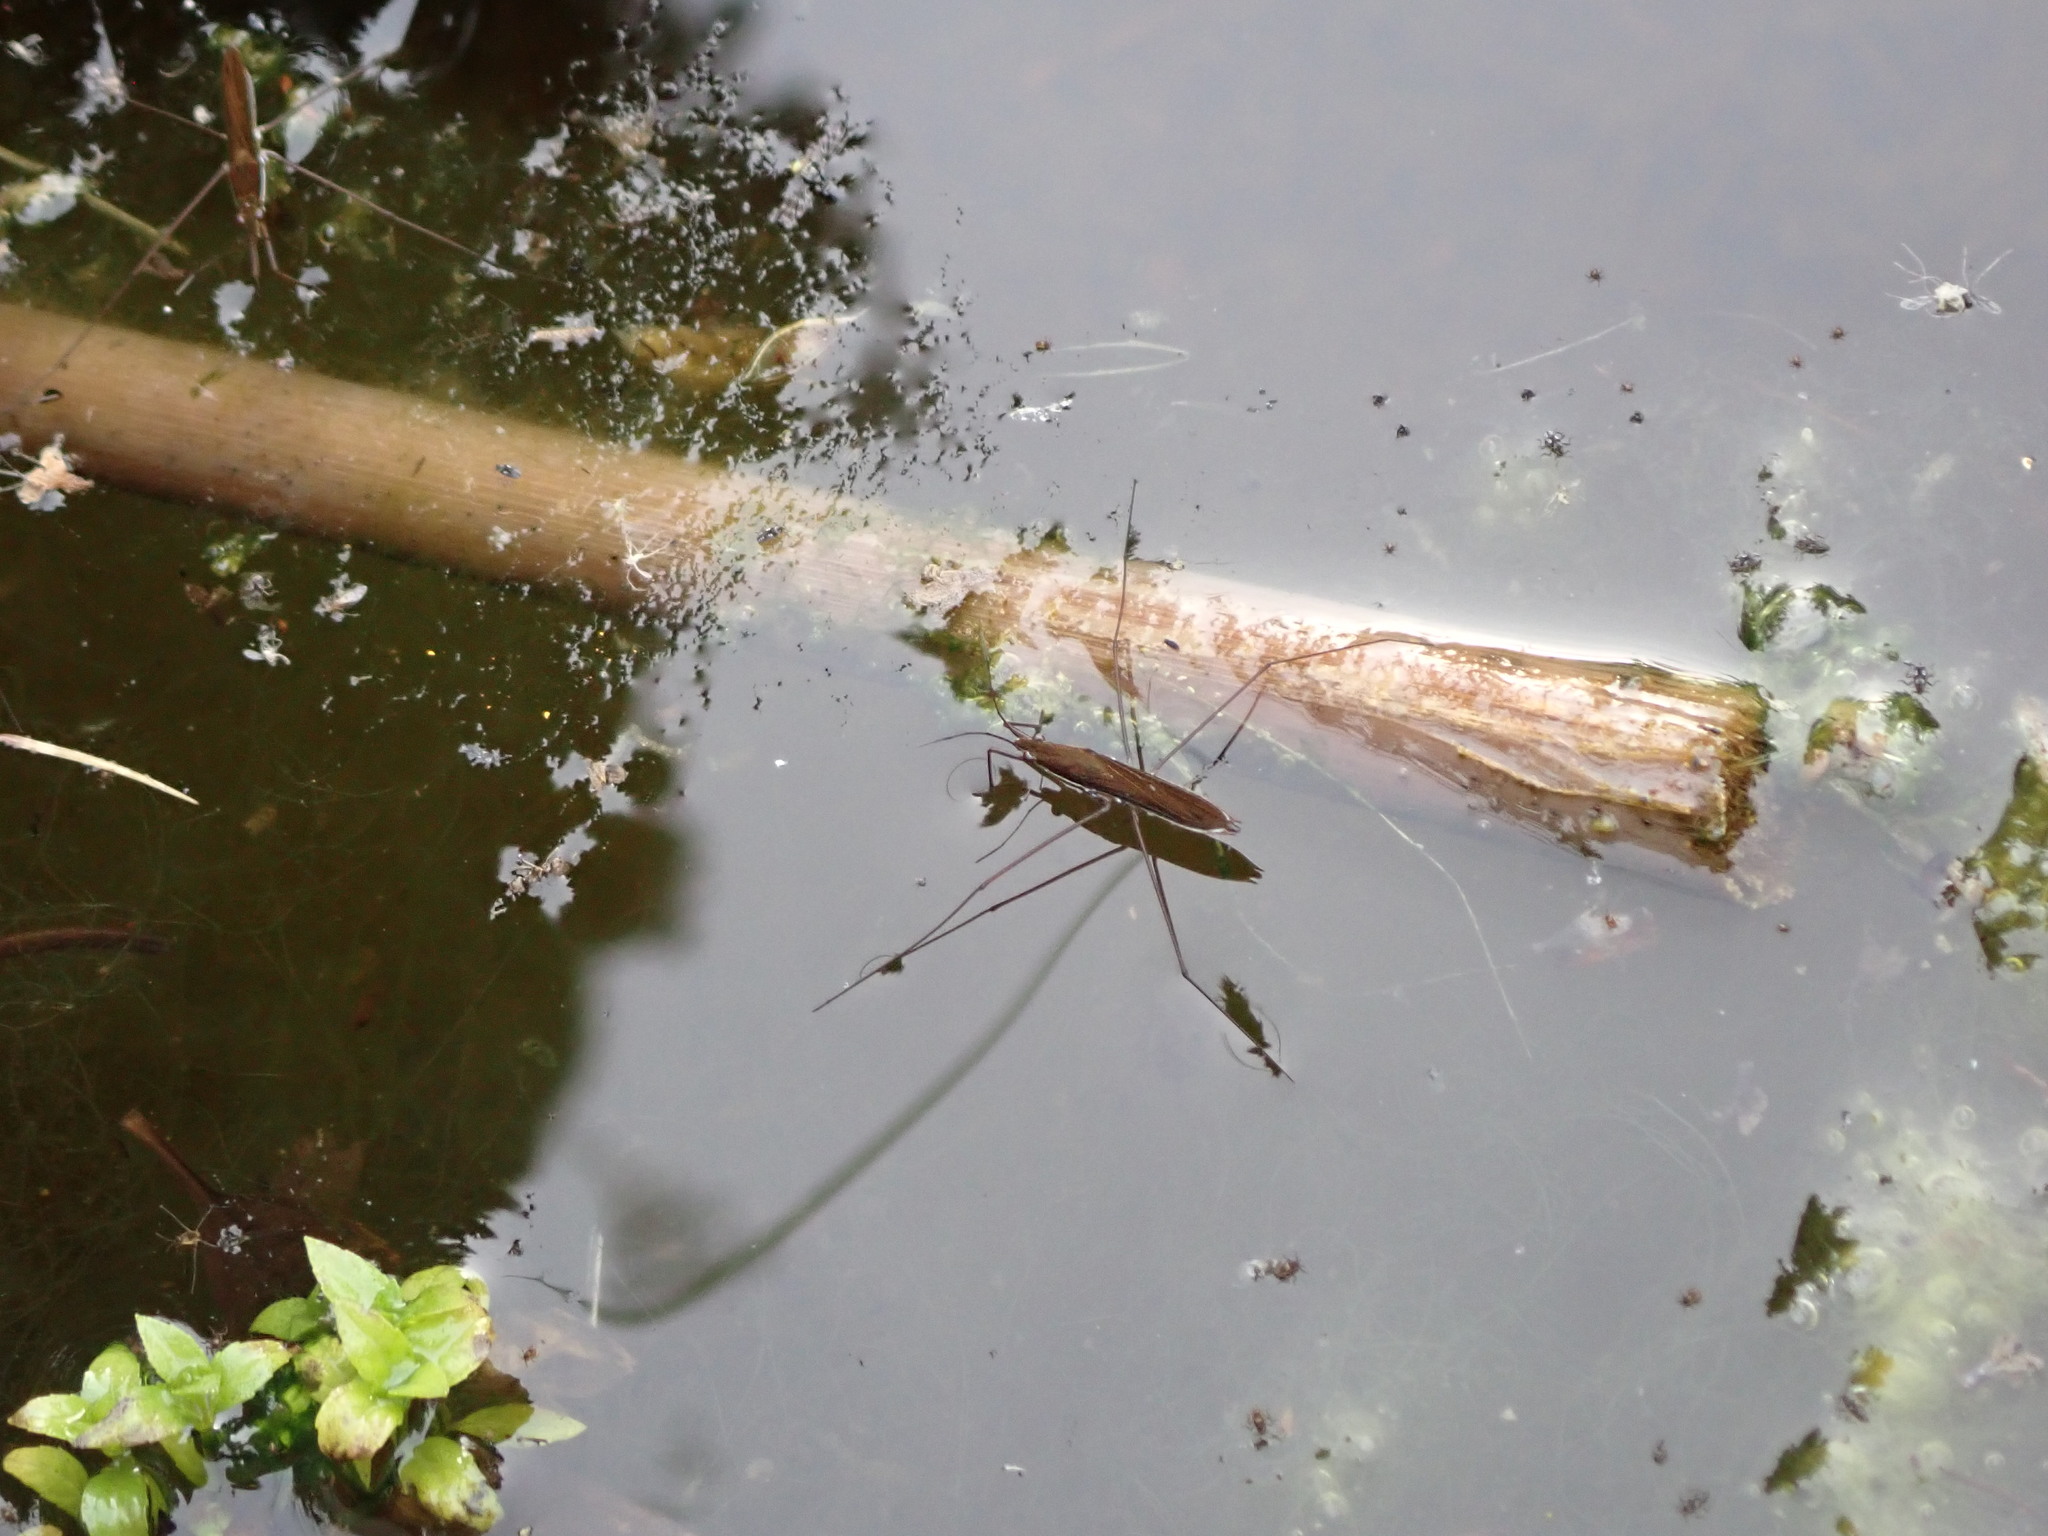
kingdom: Animalia
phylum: Arthropoda
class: Insecta
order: Hemiptera
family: Gerridae
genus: Limnoporus
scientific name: Limnoporus dissortis
